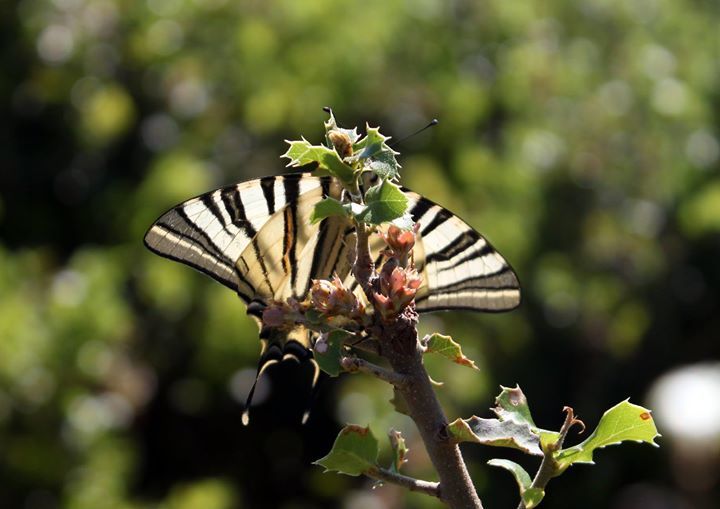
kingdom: Animalia
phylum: Arthropoda
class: Insecta
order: Lepidoptera
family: Papilionidae
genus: Iphiclides
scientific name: Iphiclides podalirius
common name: Scarce swallowtail
